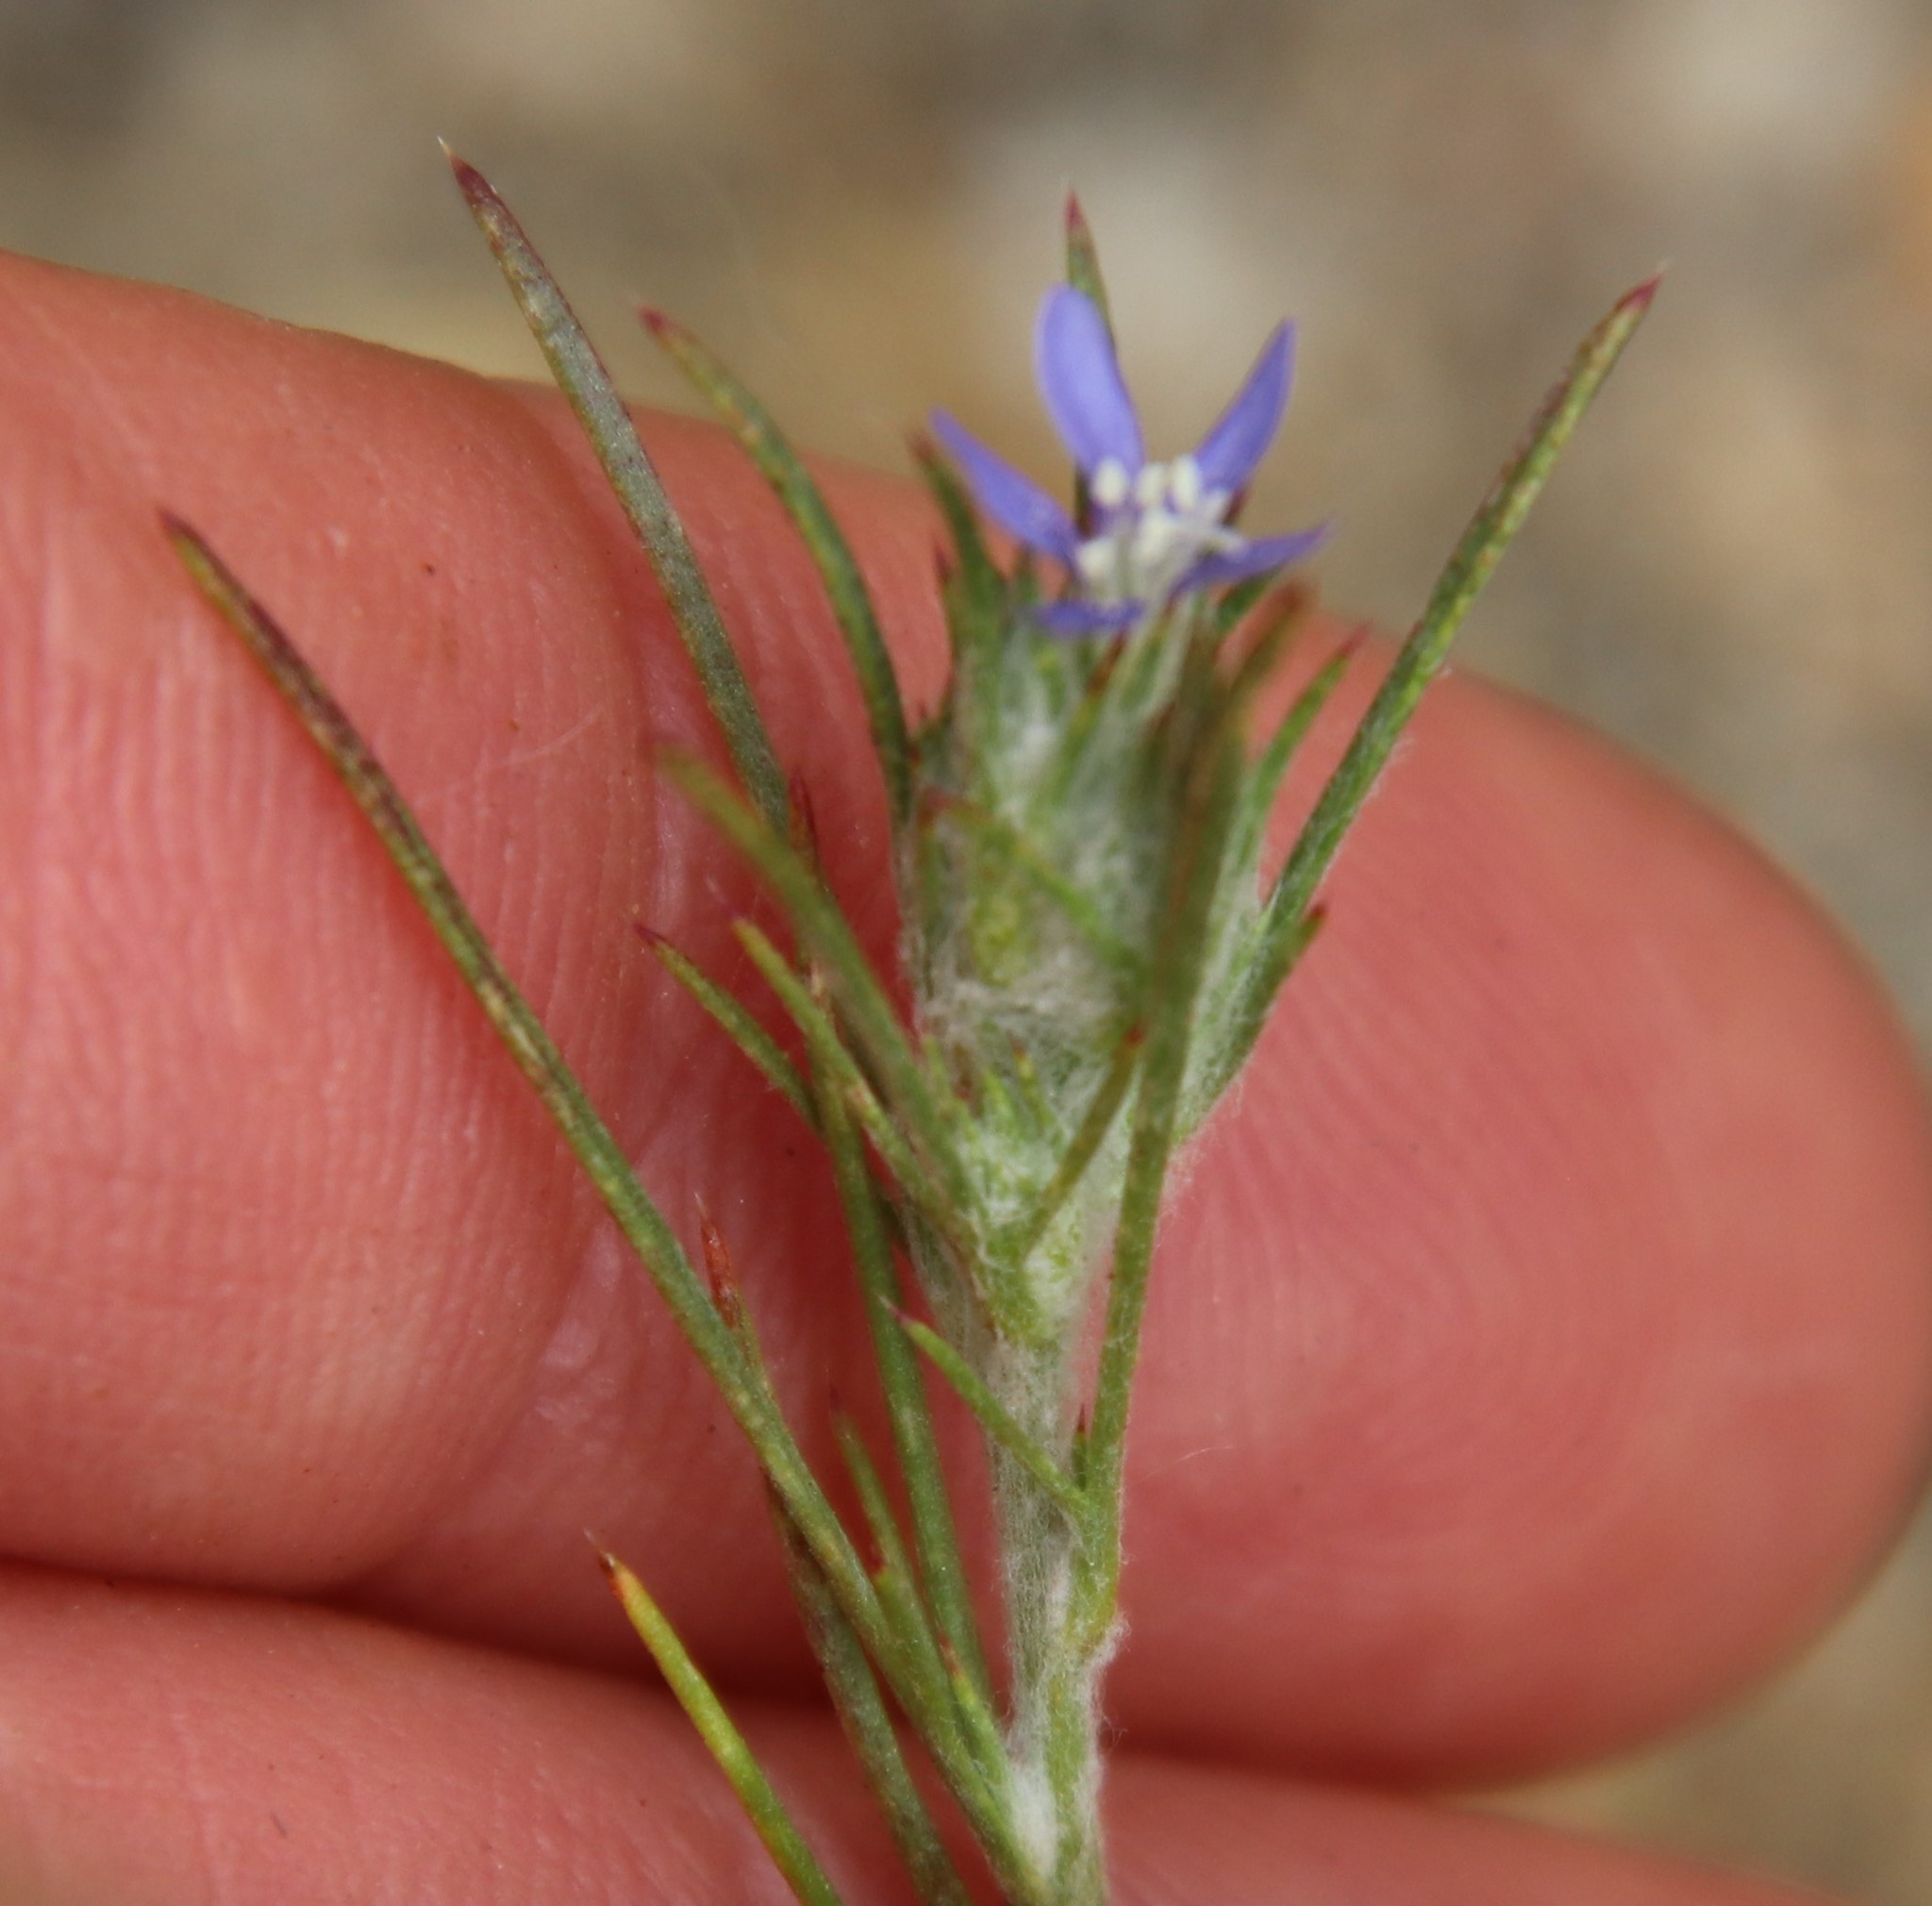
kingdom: Plantae
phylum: Tracheophyta
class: Magnoliopsida
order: Ericales
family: Polemoniaceae
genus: Eriastrum
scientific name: Eriastrum filifolium
